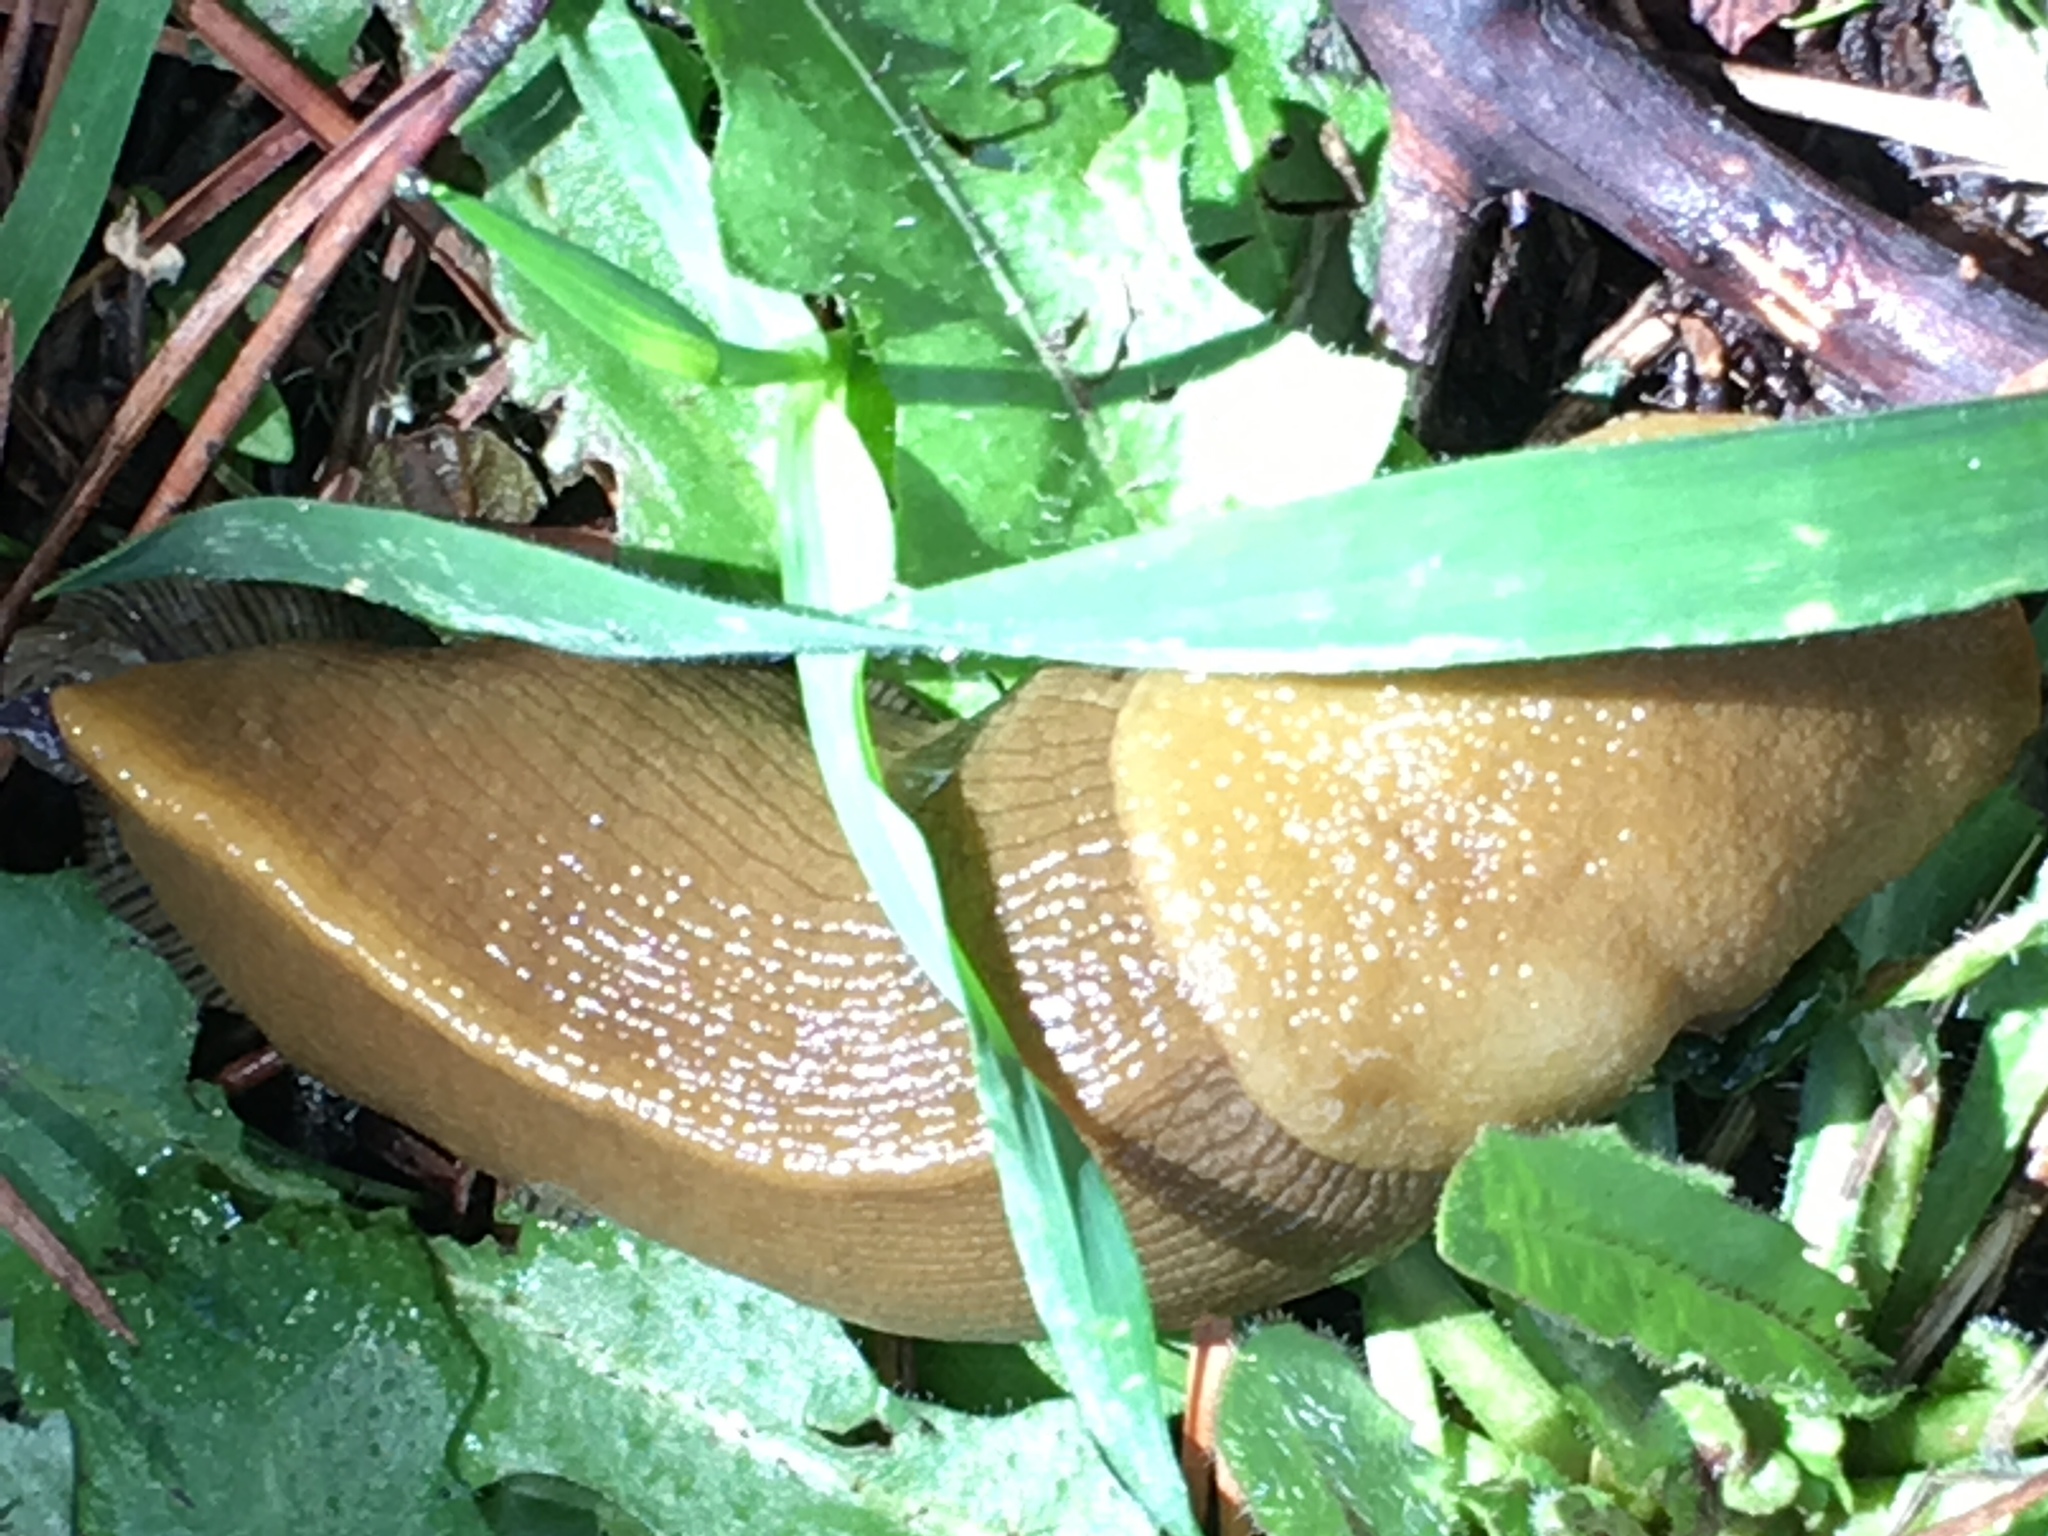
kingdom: Animalia
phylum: Mollusca
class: Gastropoda
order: Stylommatophora
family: Ariolimacidae
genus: Ariolimax
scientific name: Ariolimax buttoni
